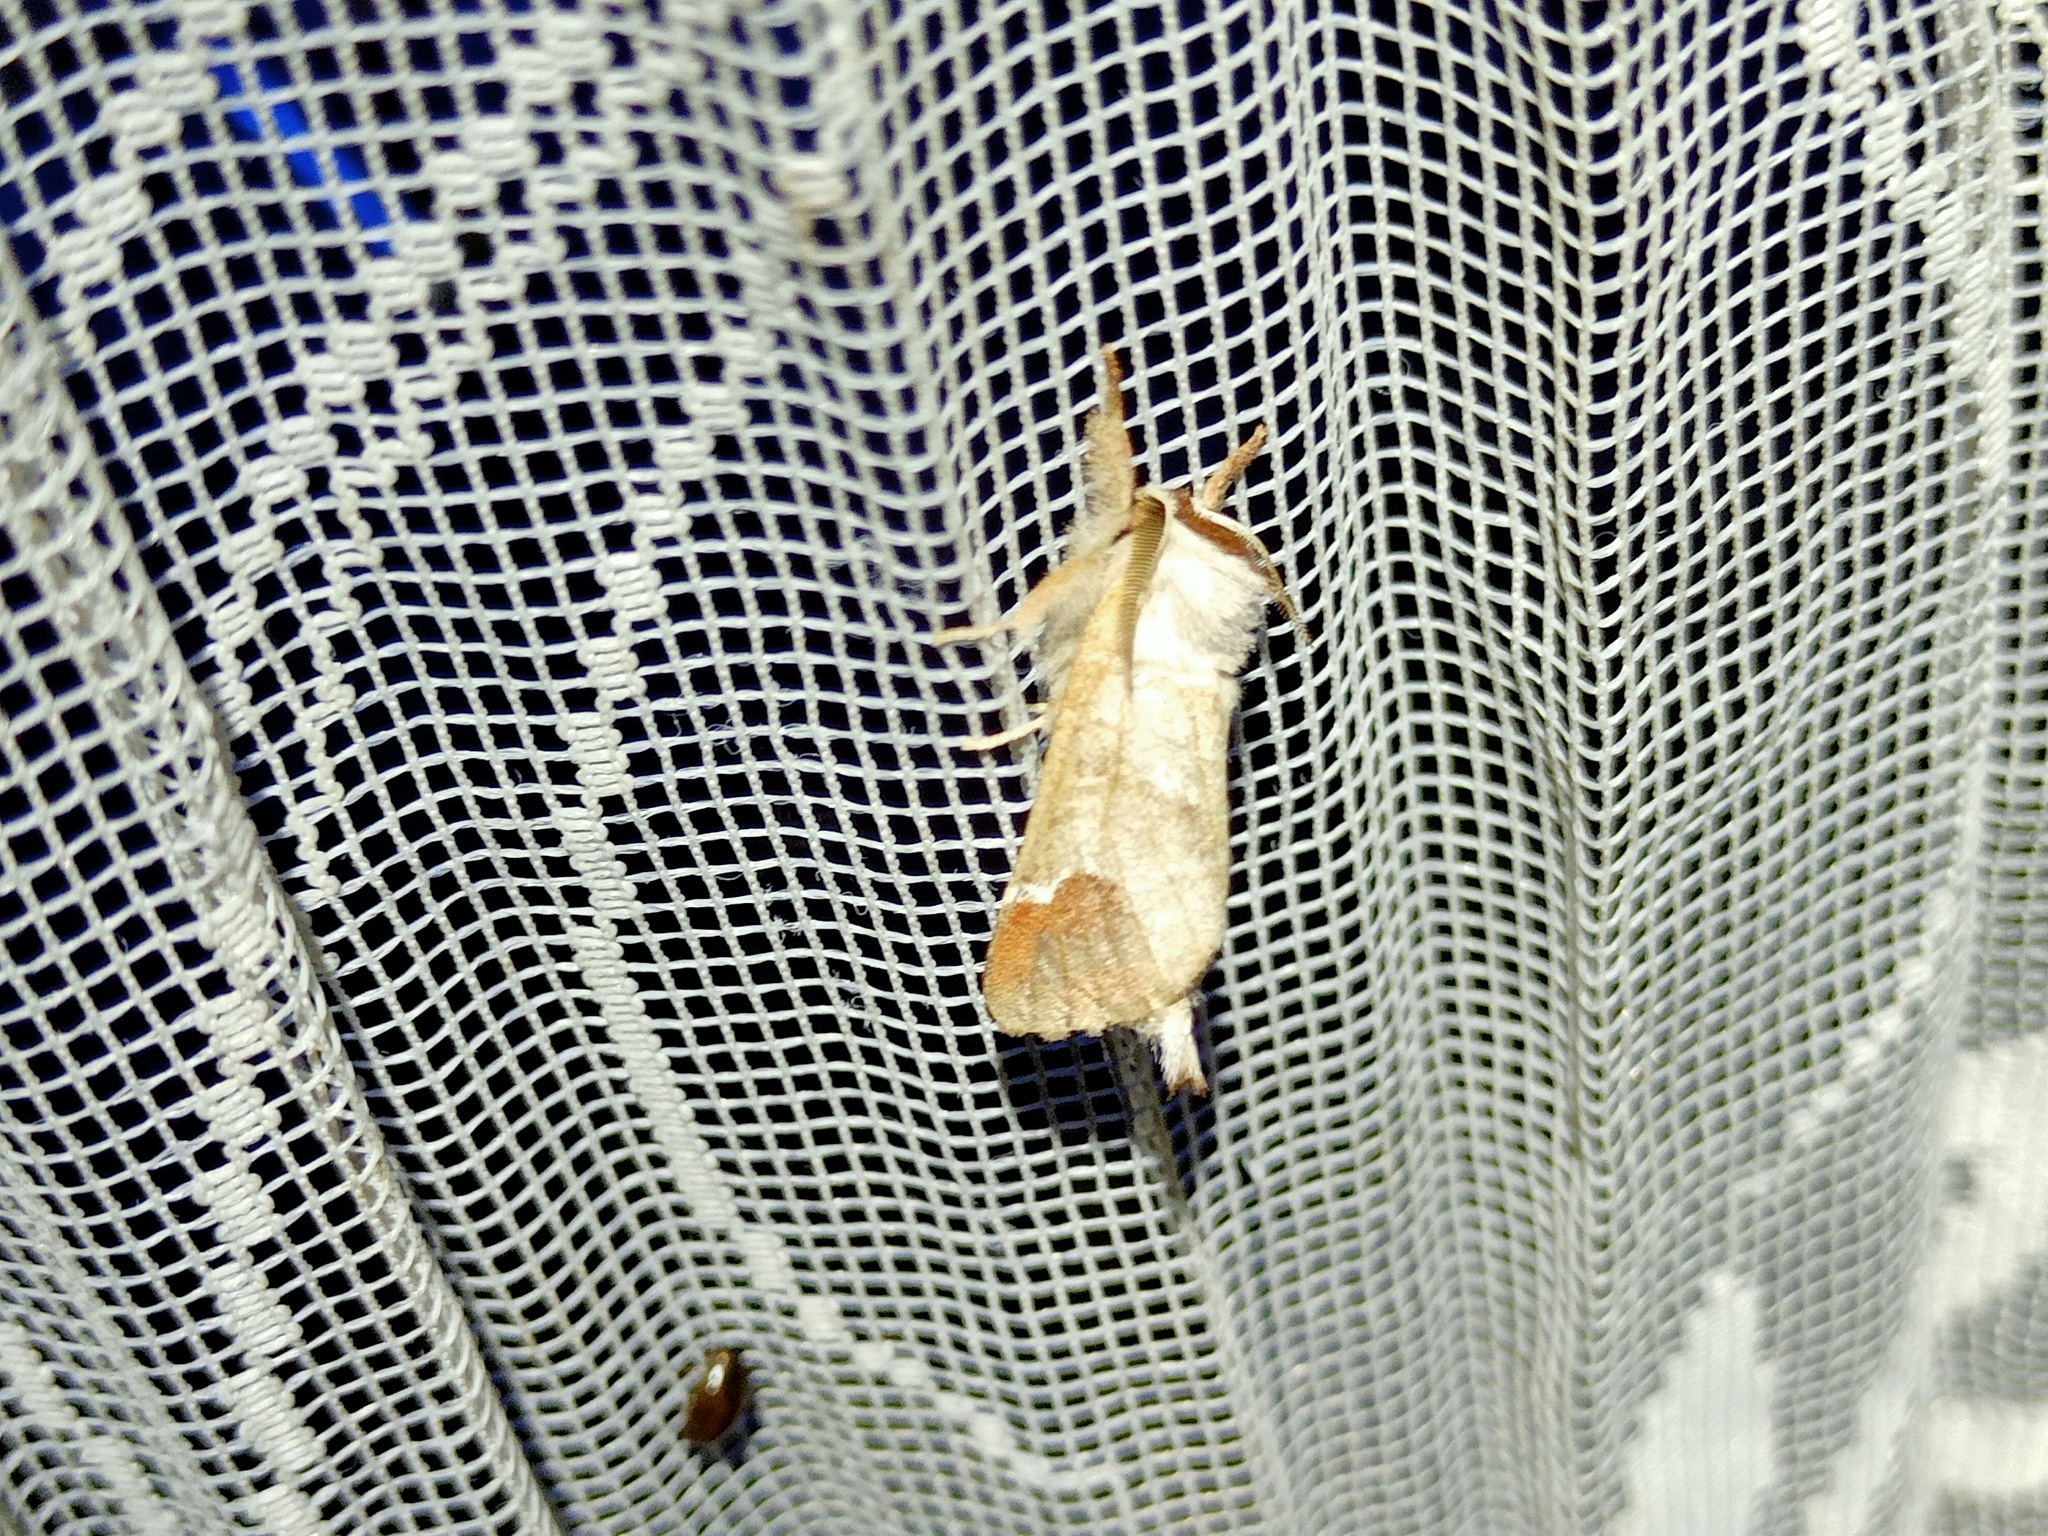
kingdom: Animalia
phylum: Arthropoda
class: Insecta
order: Lepidoptera
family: Notodontidae
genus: Clostera
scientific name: Clostera curtula
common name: Chocolate-tip
